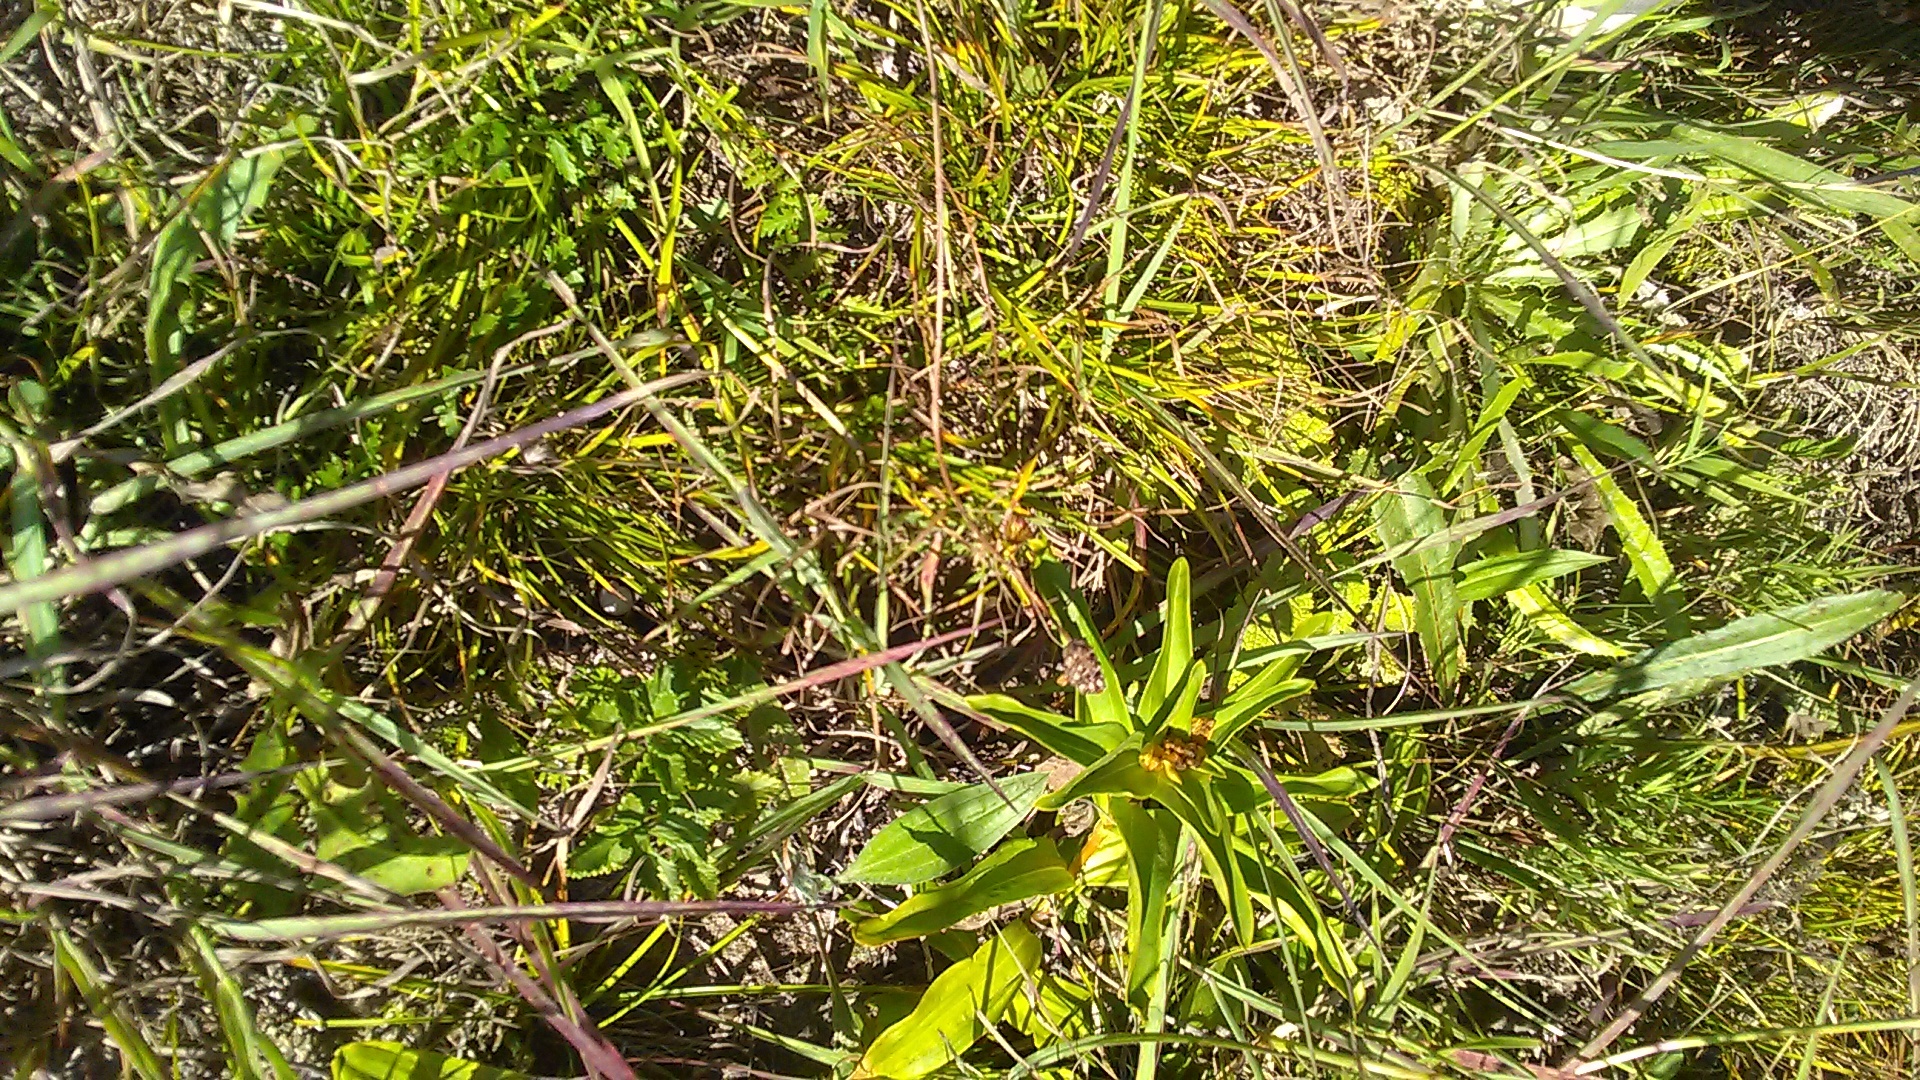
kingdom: Plantae
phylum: Tracheophyta
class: Magnoliopsida
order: Gentianales
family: Gentianaceae
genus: Gentiana
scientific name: Gentiana septemfida
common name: Crested gentian
